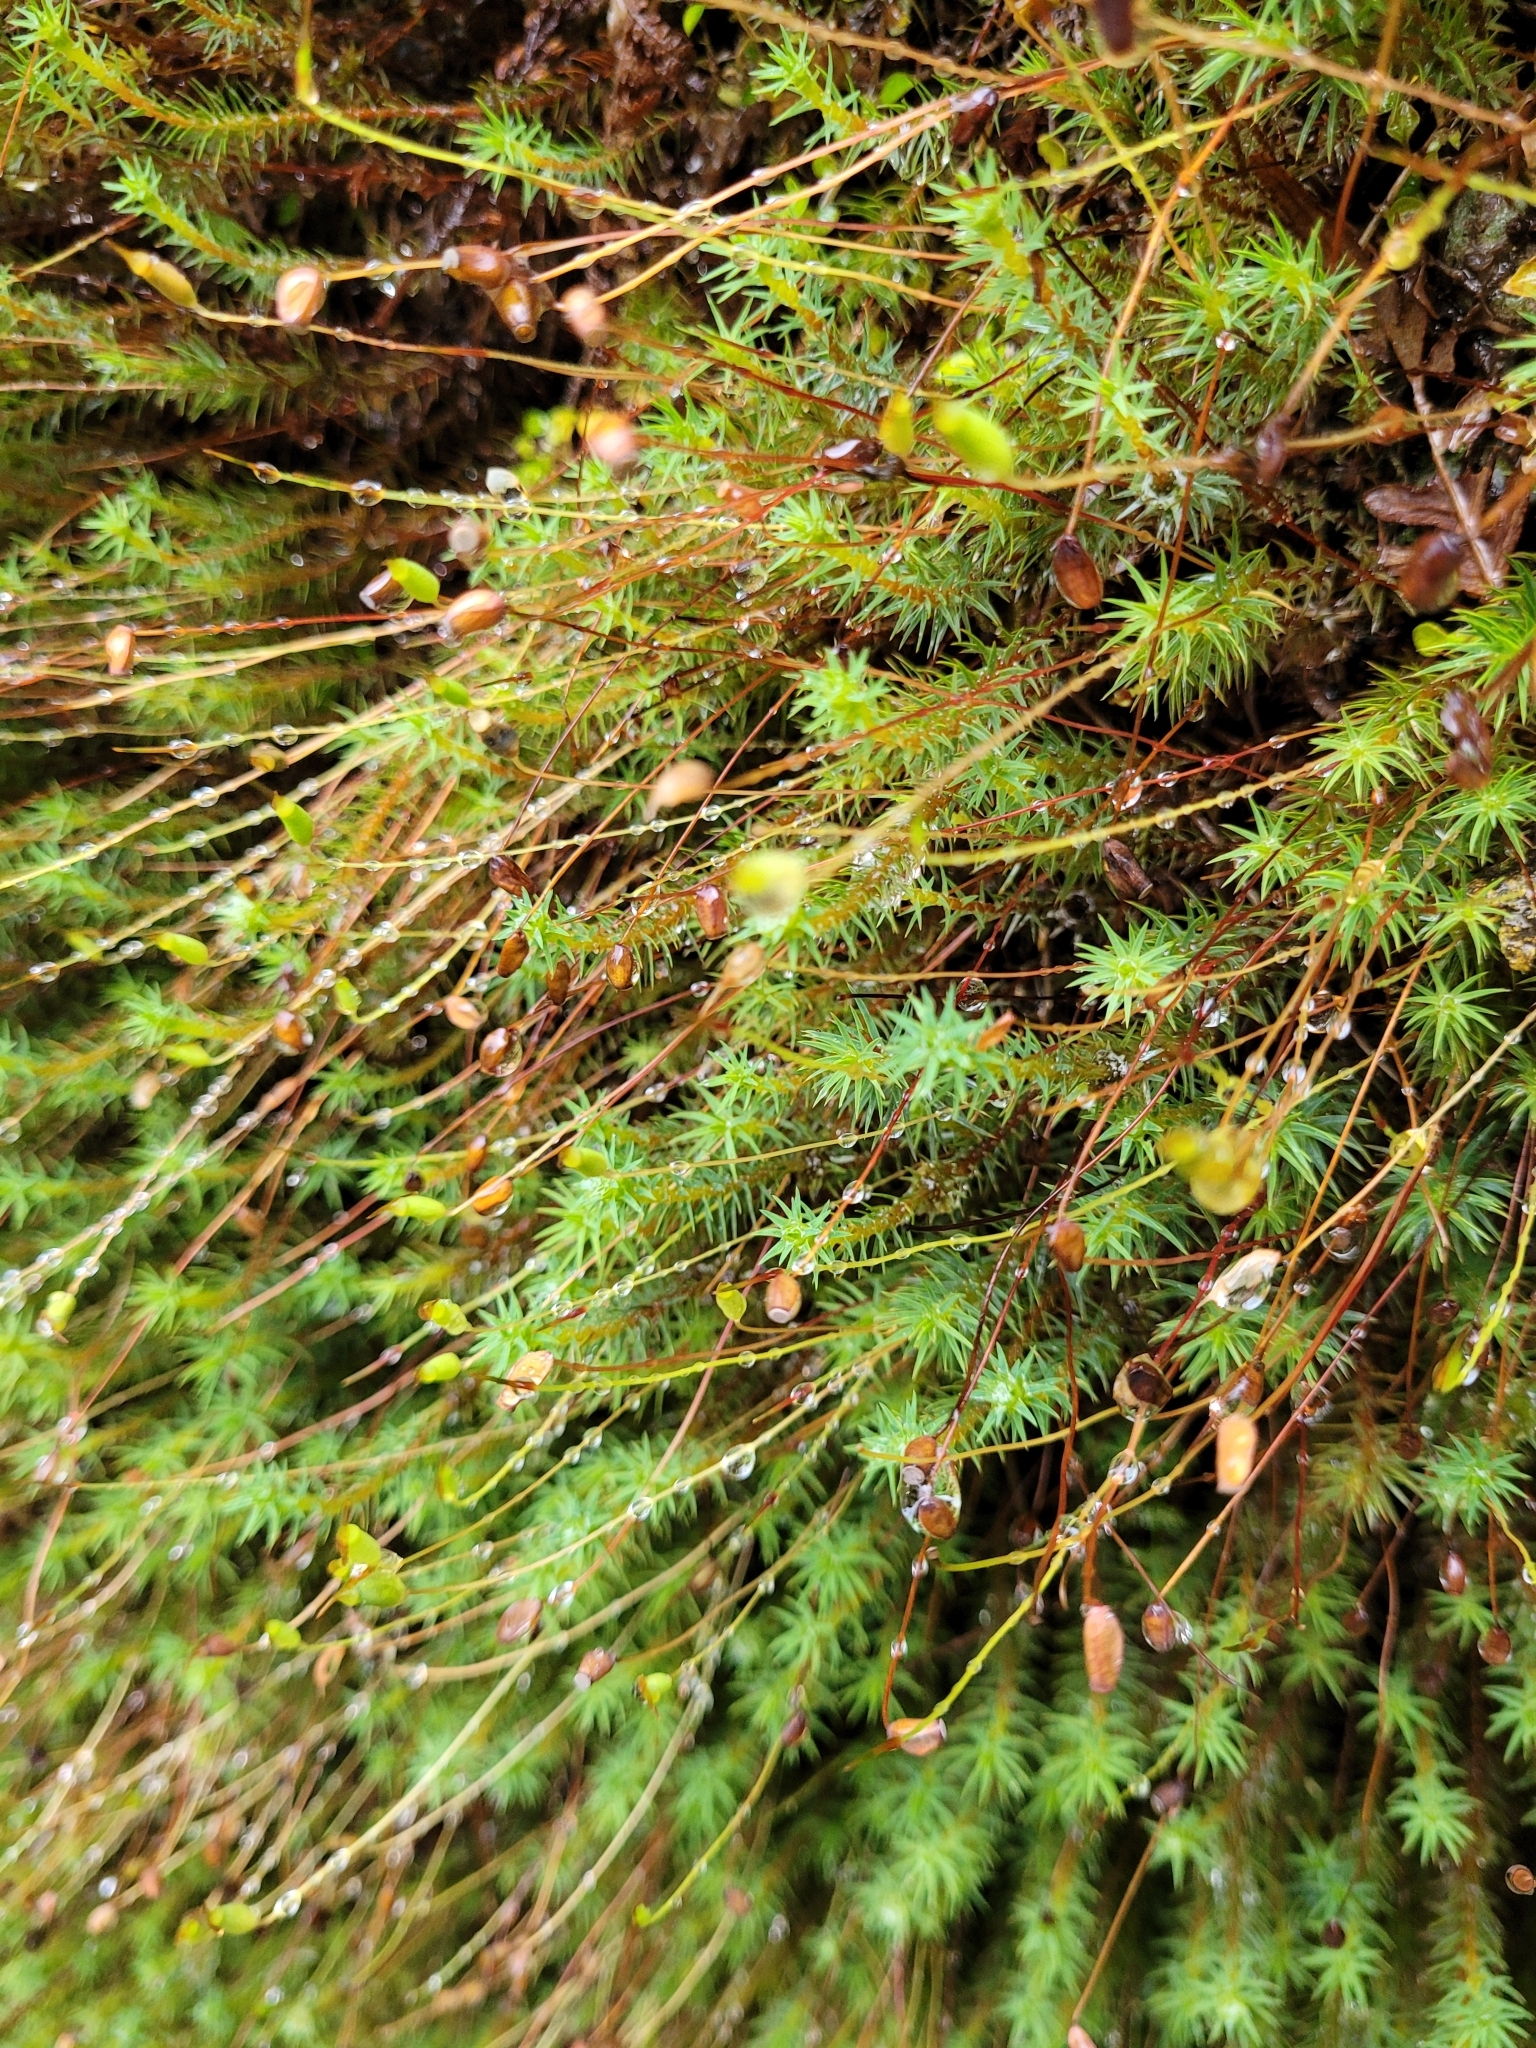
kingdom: Plantae
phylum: Bryophyta
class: Polytrichopsida
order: Polytrichales
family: Polytrichaceae
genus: Polytrichadelphus
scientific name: Polytrichadelphus magellanicus
